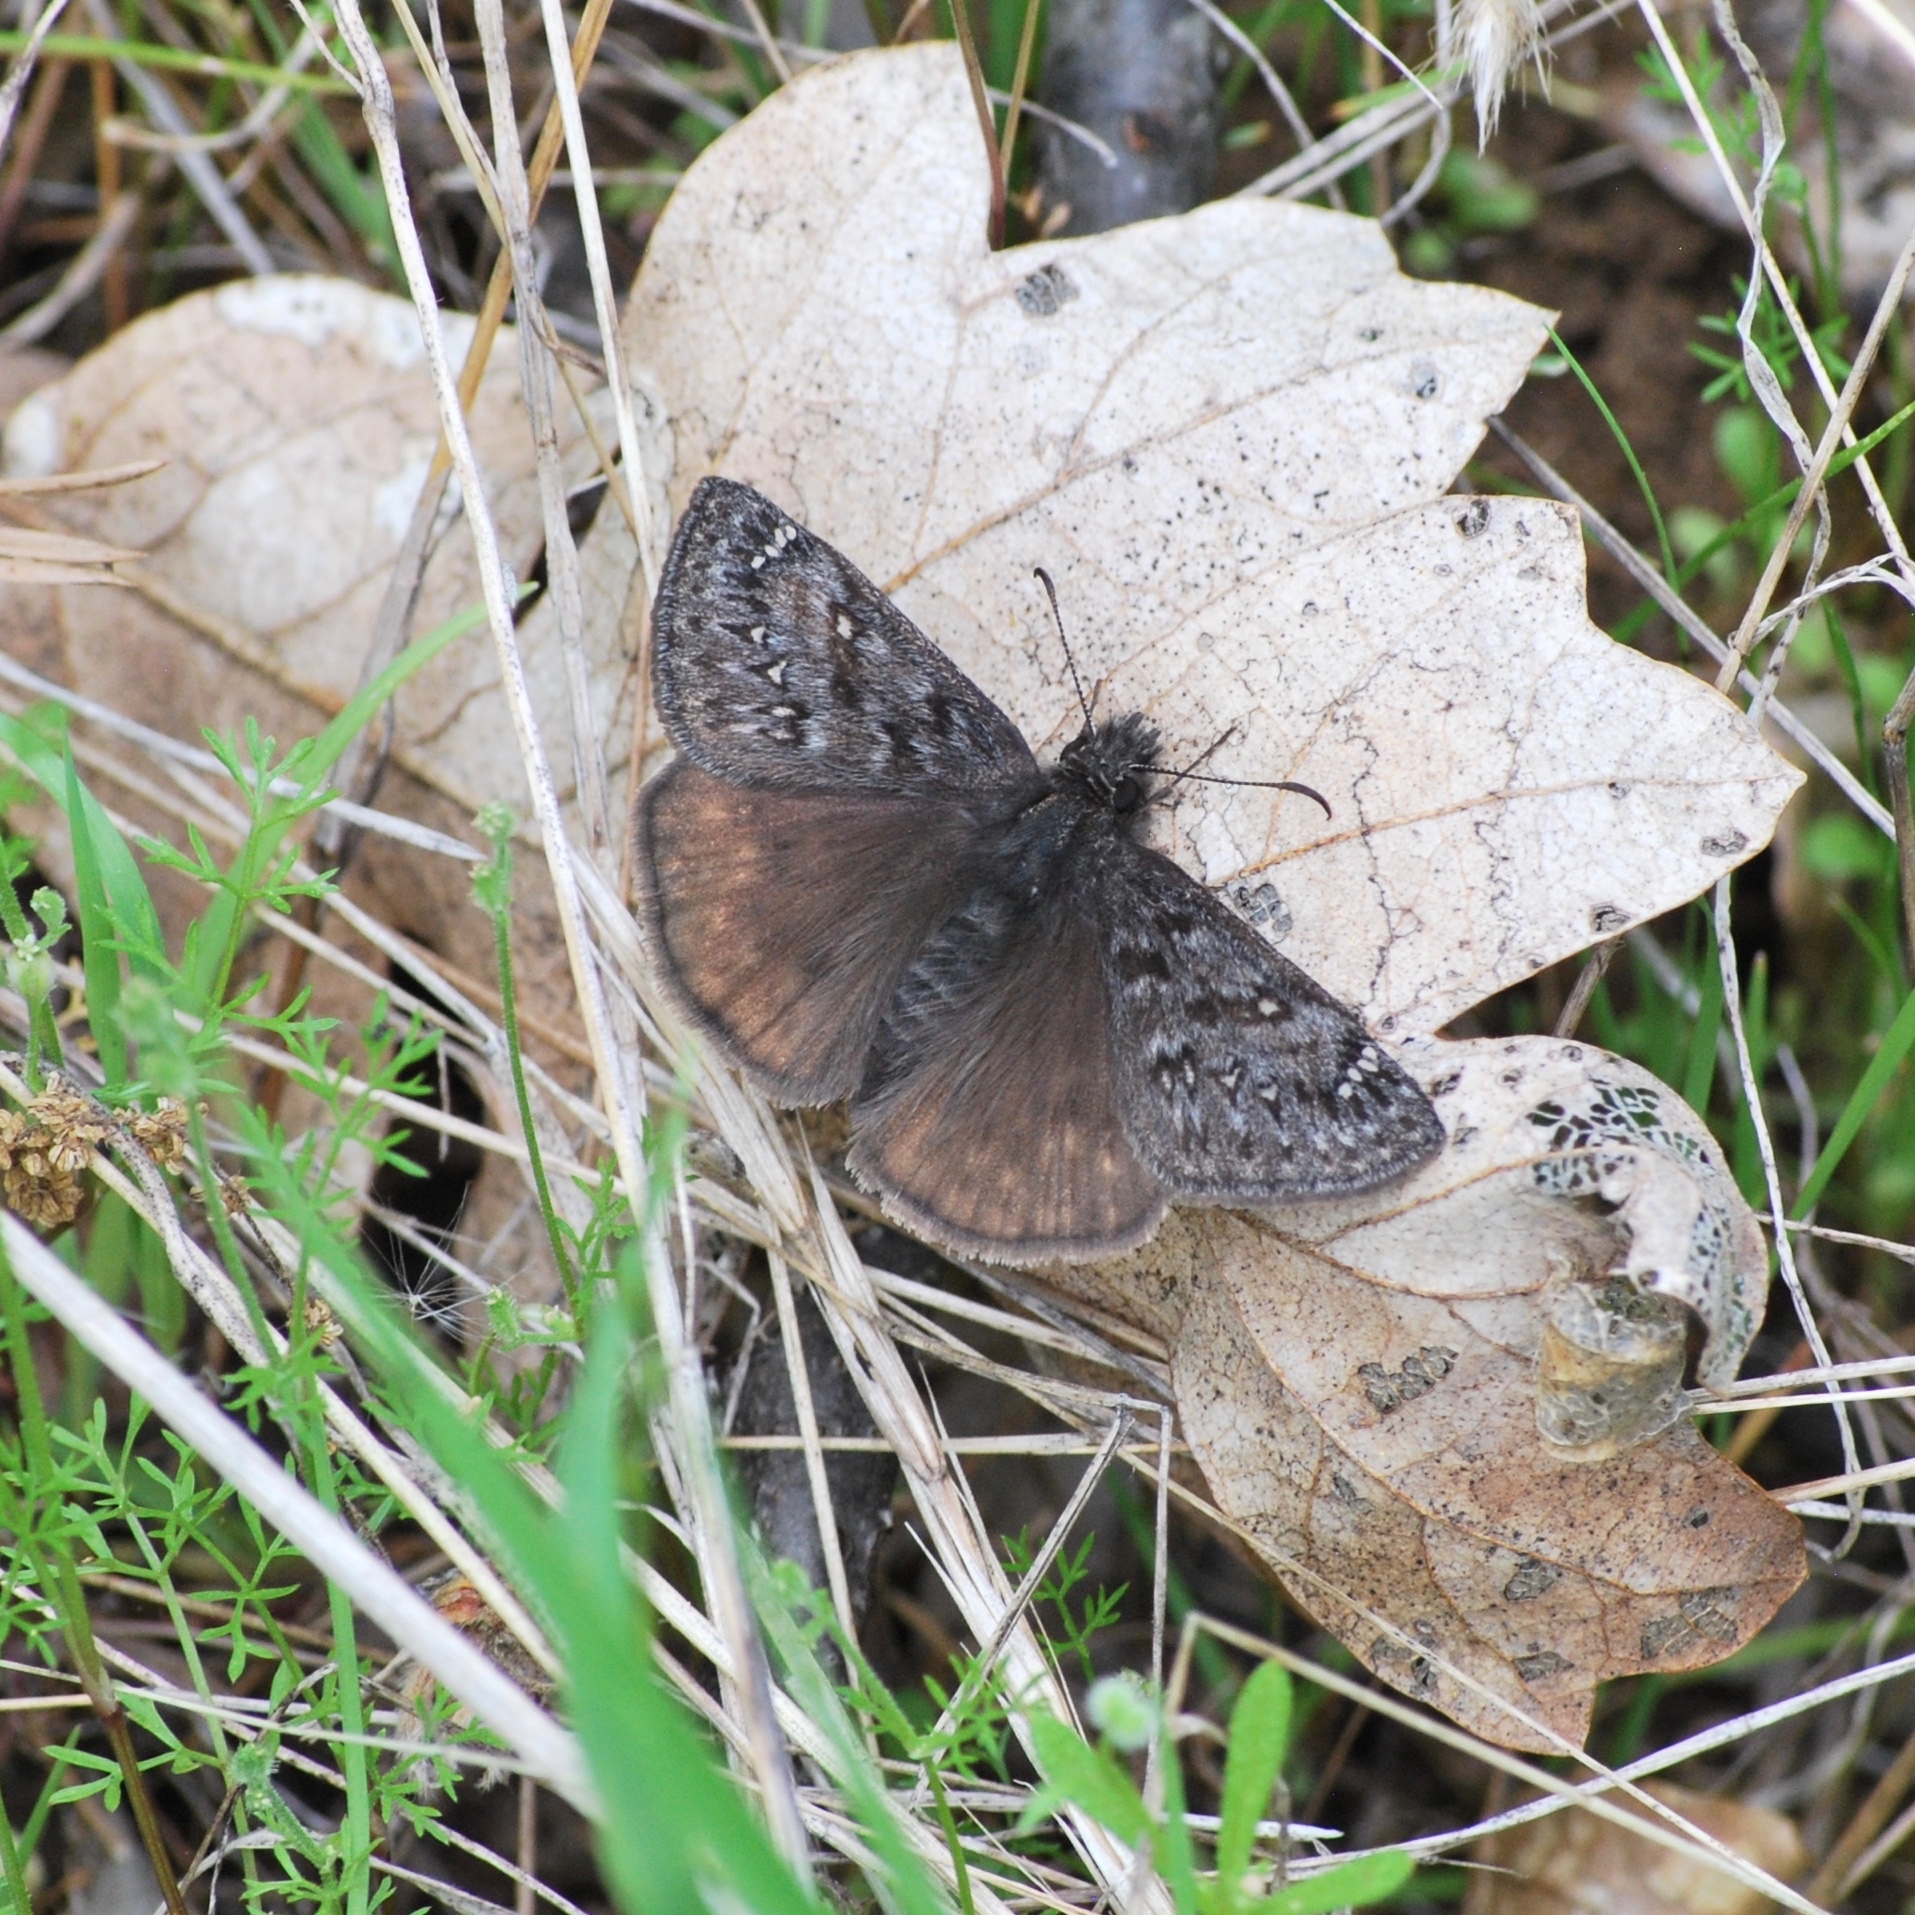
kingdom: Animalia
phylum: Arthropoda
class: Insecta
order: Lepidoptera
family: Hesperiidae
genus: Erynnis
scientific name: Erynnis propertius
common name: Propertius duskywing
